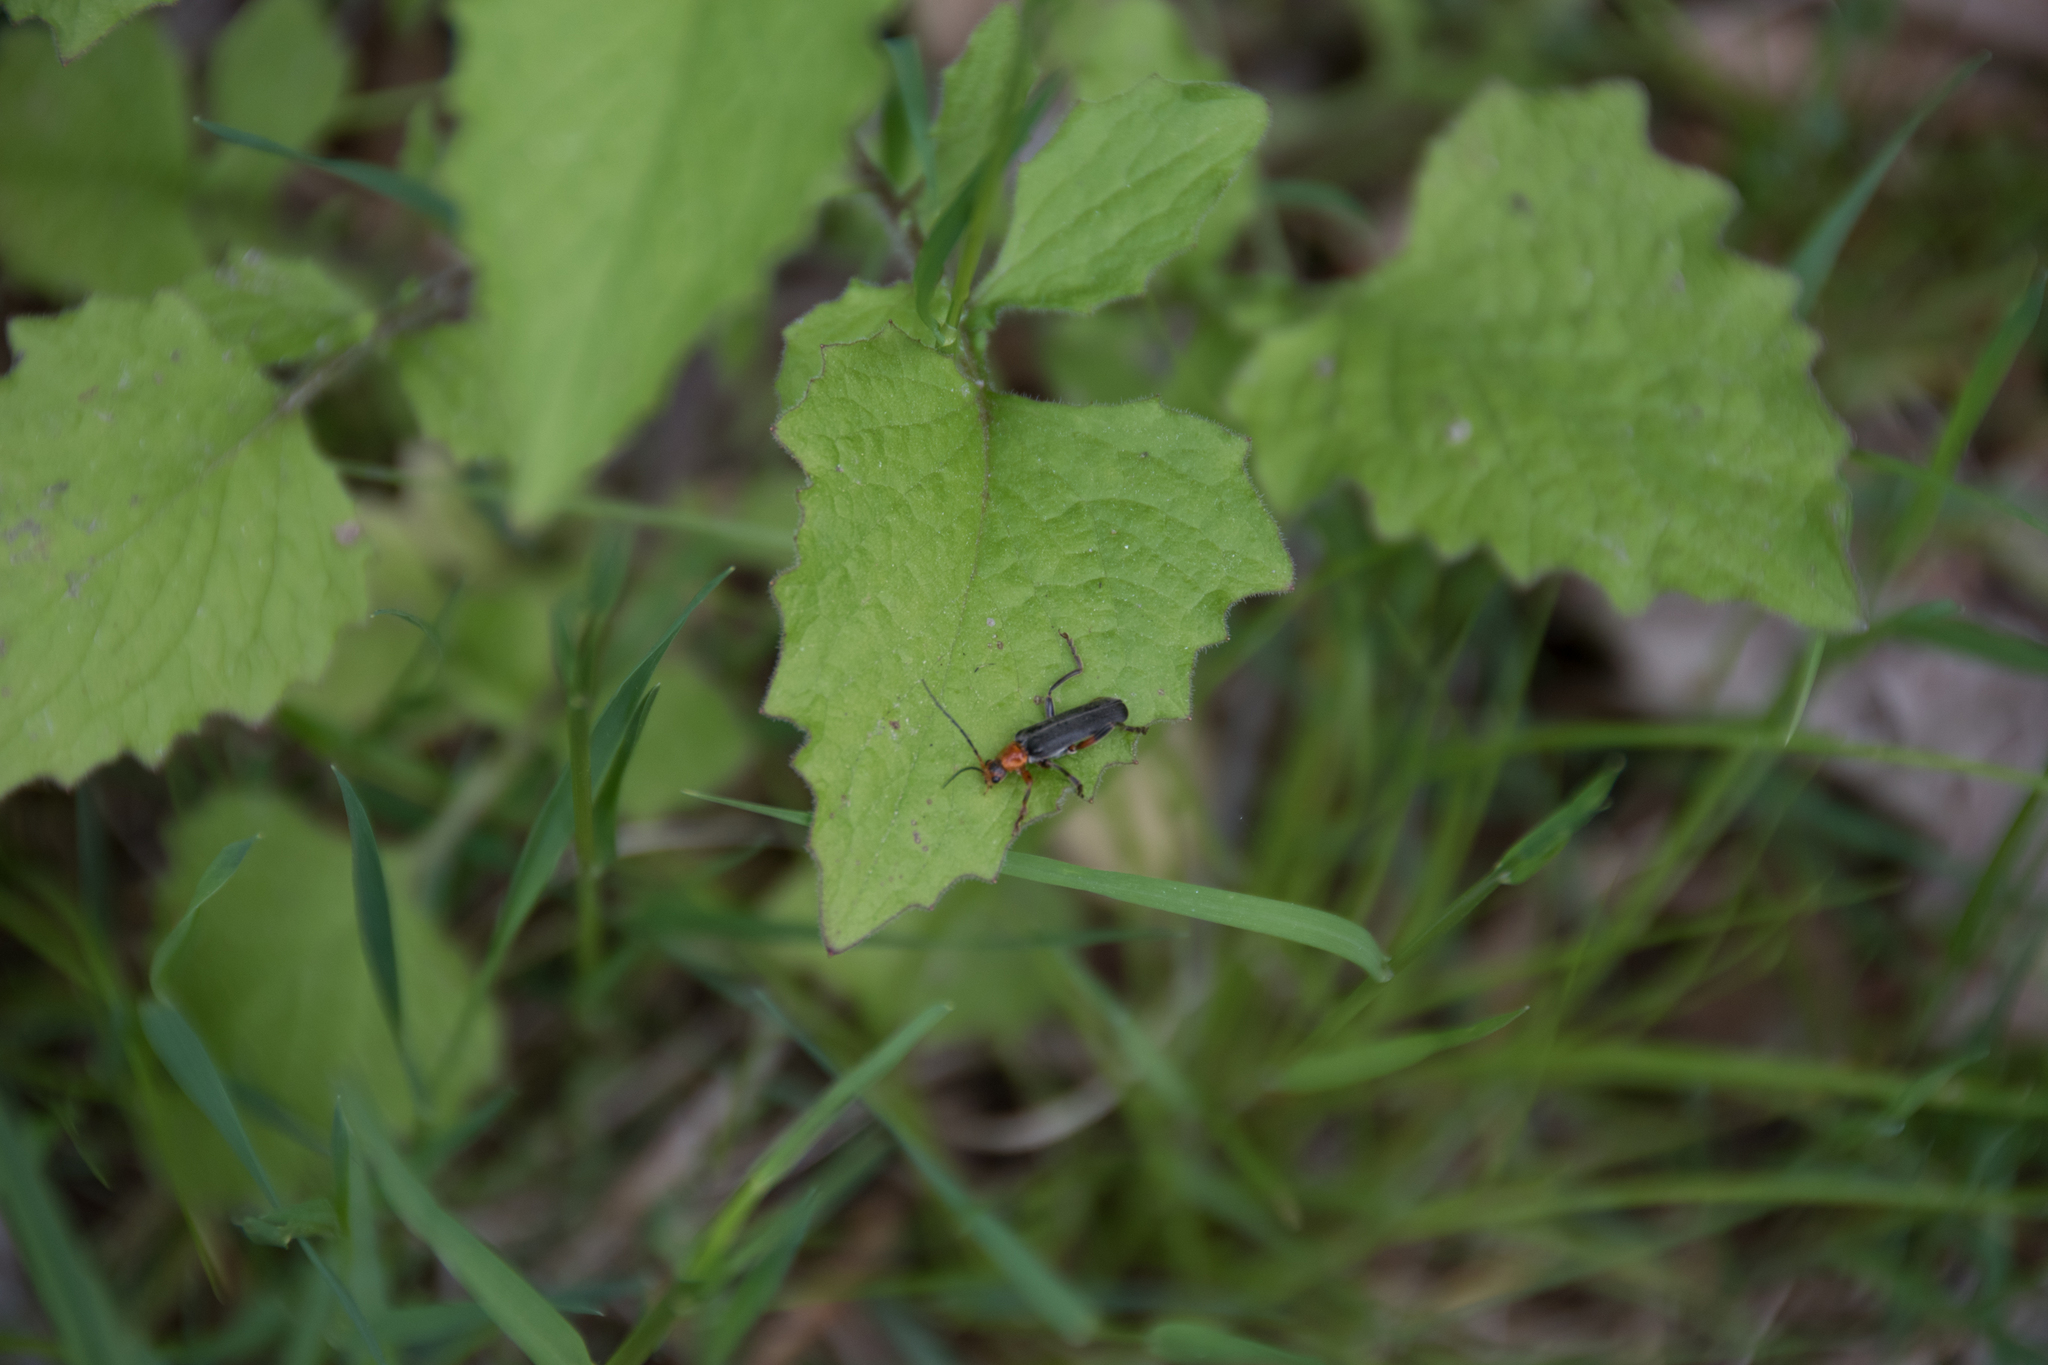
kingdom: Animalia
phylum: Arthropoda
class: Insecta
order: Coleoptera
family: Cantharidae
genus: Cantharis
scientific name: Cantharis livida
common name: Livid soldier beetle
